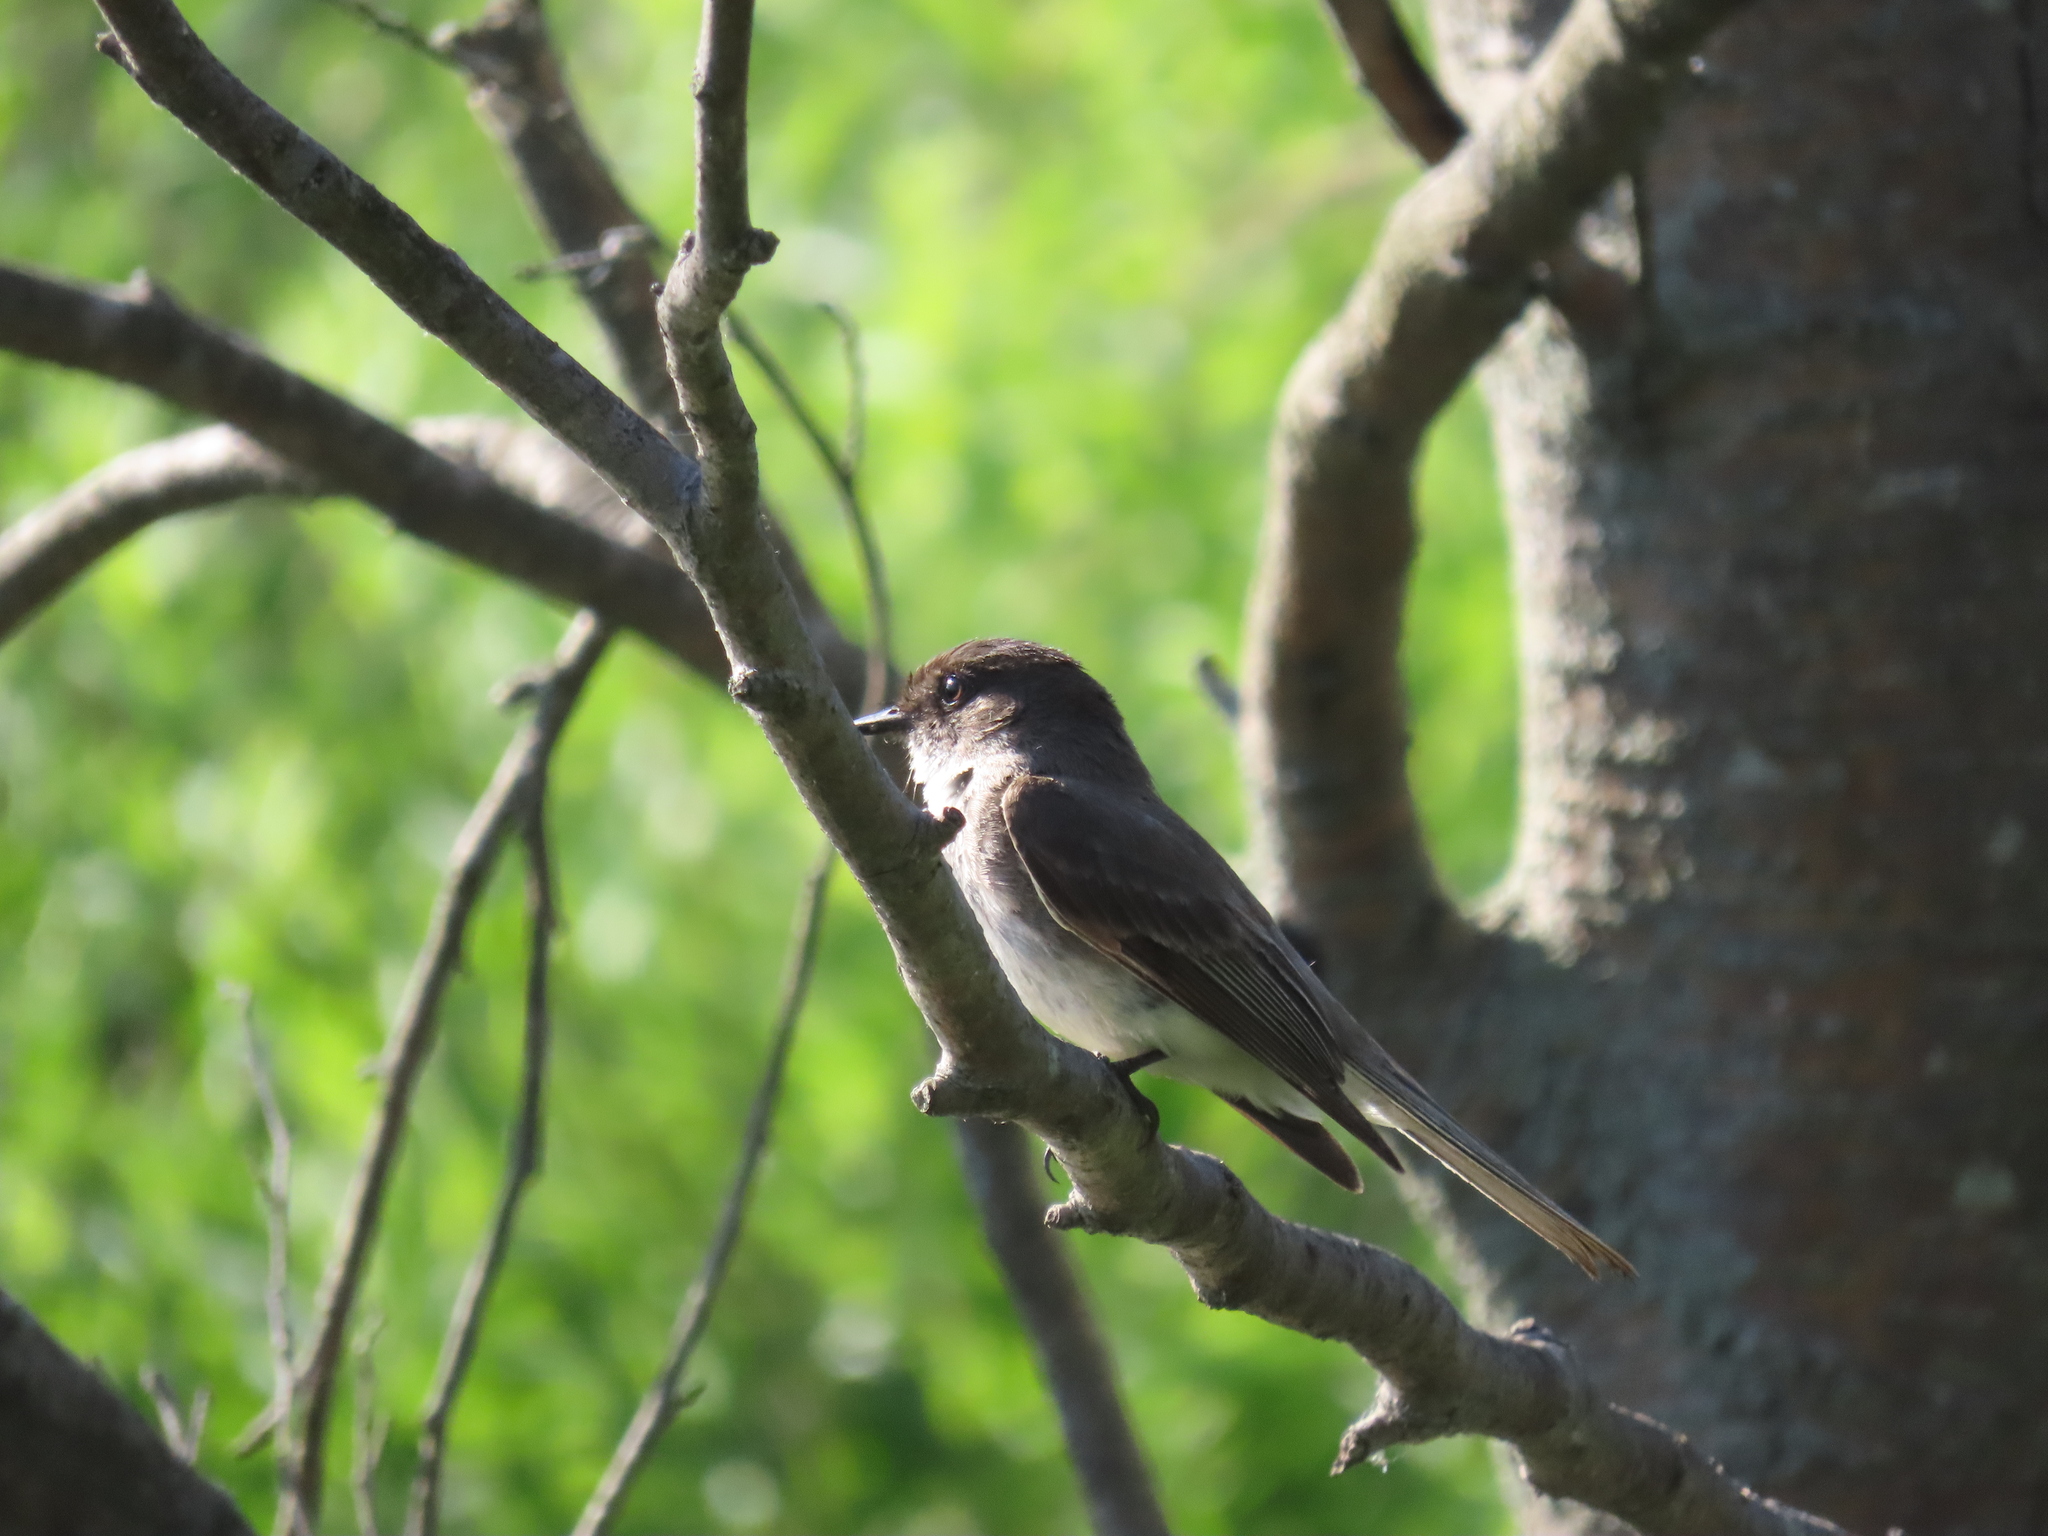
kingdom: Animalia
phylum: Chordata
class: Aves
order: Passeriformes
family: Tyrannidae
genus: Sayornis
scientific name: Sayornis phoebe
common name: Eastern phoebe
